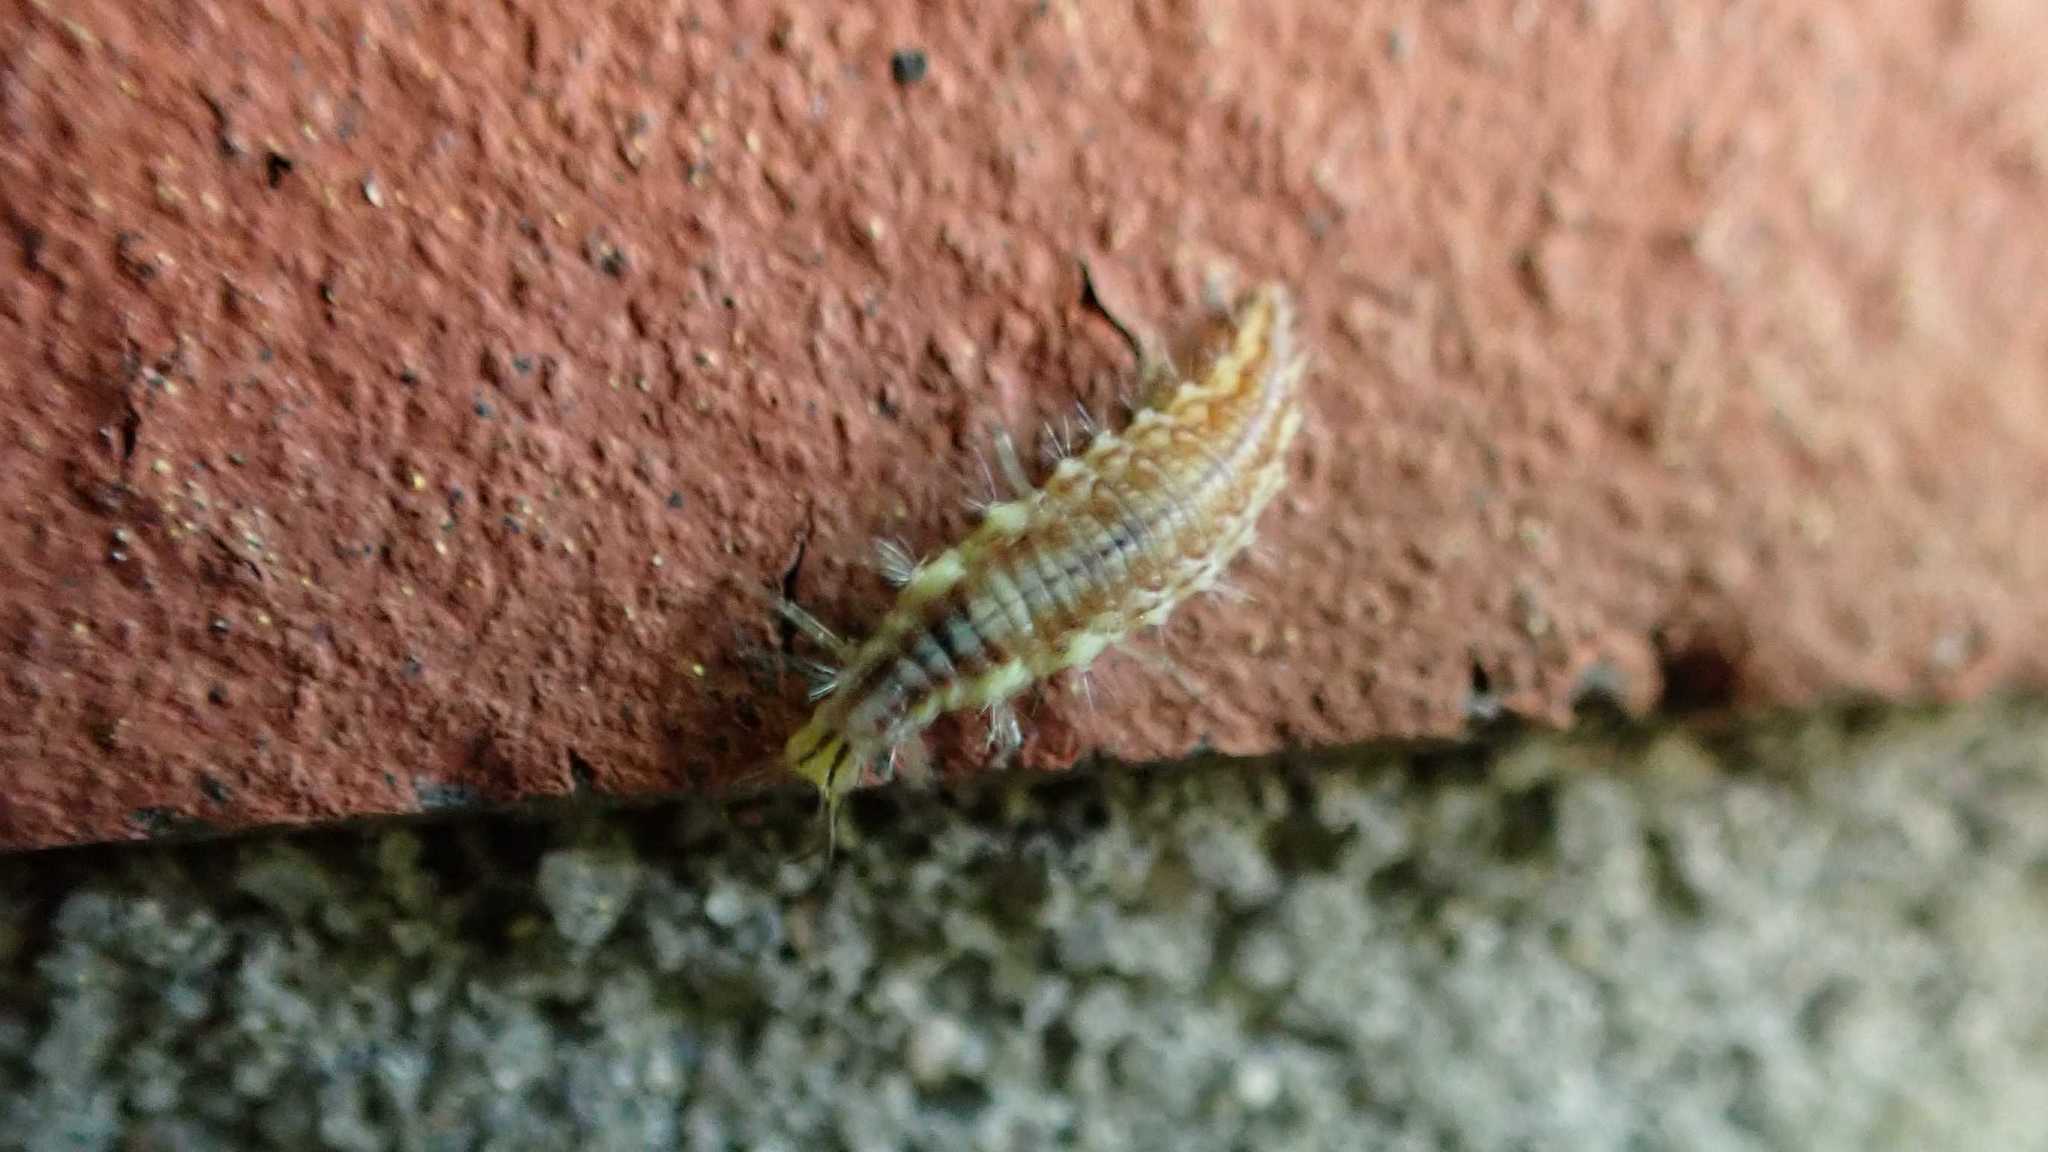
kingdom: Animalia
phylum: Arthropoda
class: Insecta
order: Neuroptera
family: Chrysopidae
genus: Chrysoperla
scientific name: Chrysoperla
